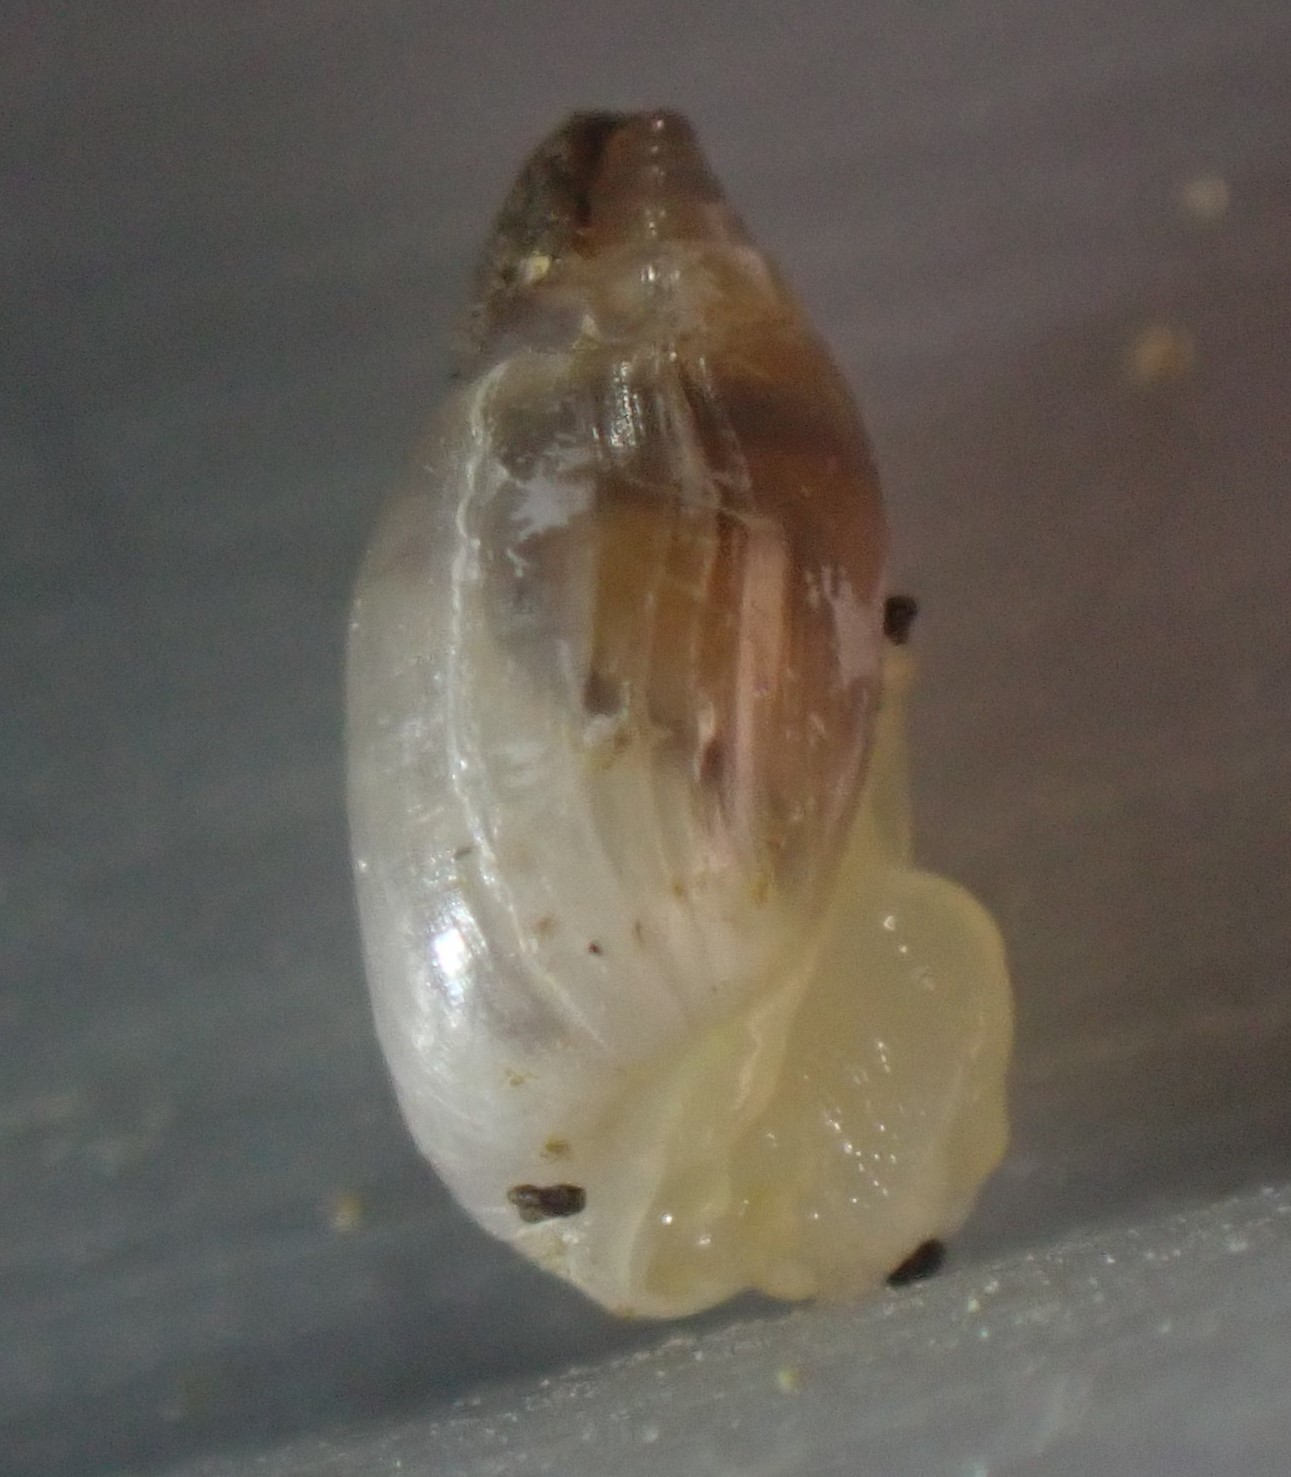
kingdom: Animalia
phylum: Mollusca
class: Gastropoda
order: Ellobiida
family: Ellobiidae
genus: Microtralia
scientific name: Microtralia insularis
